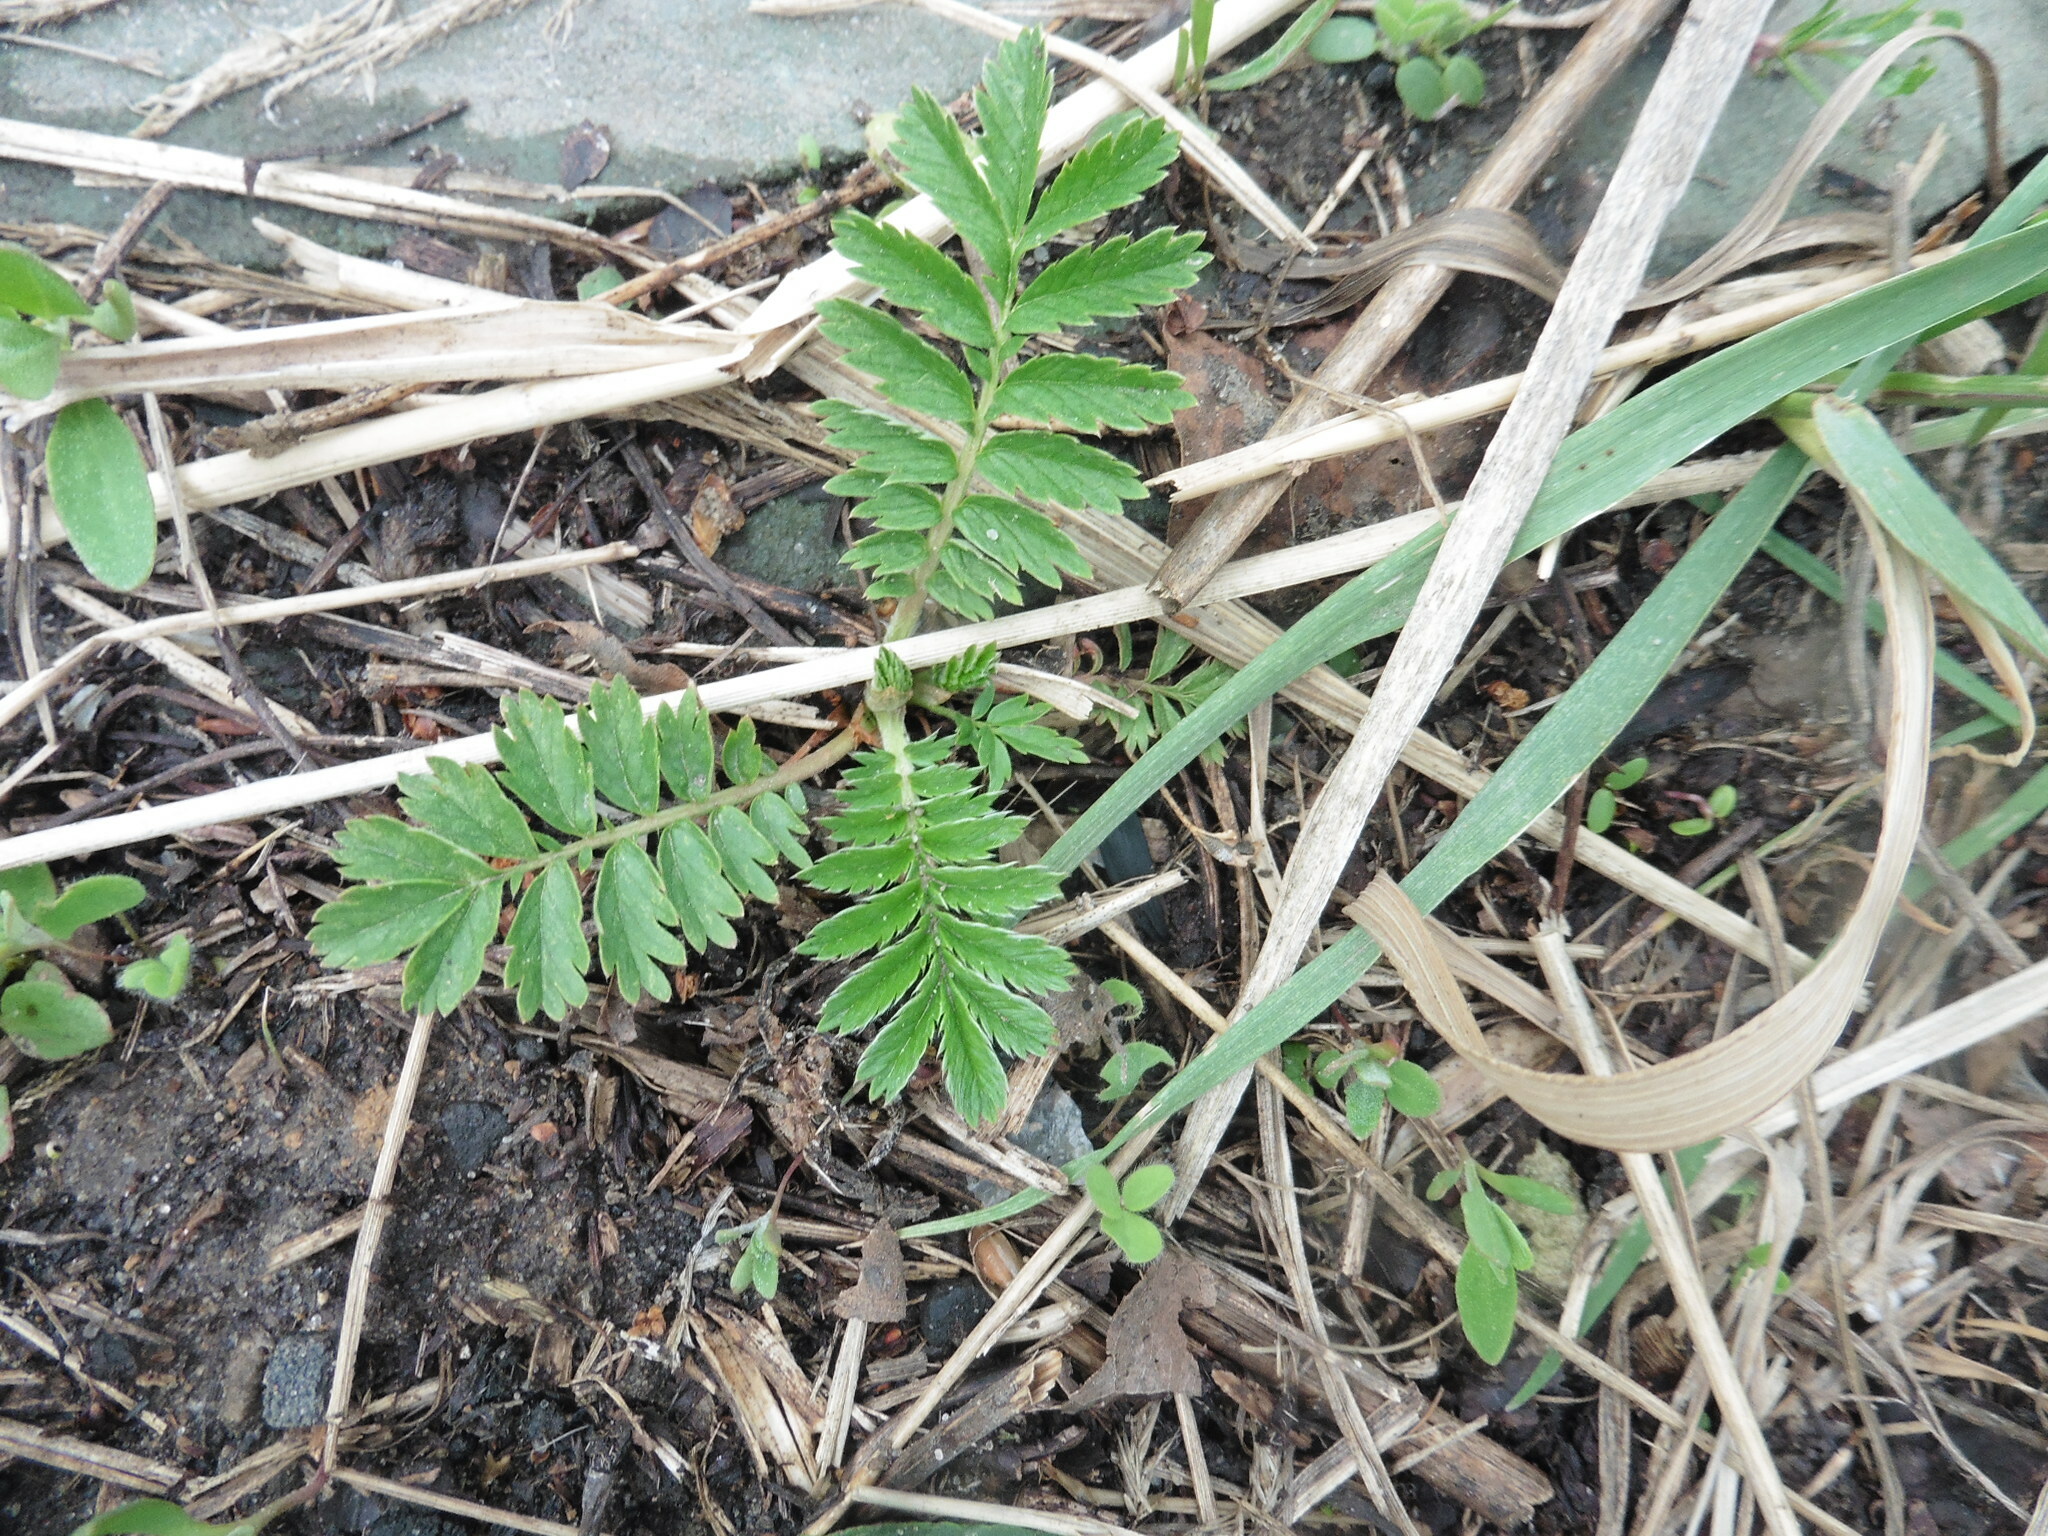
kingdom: Plantae
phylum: Tracheophyta
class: Magnoliopsida
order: Rosales
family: Rosaceae
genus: Argentina
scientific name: Argentina anserina
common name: Common silverweed
